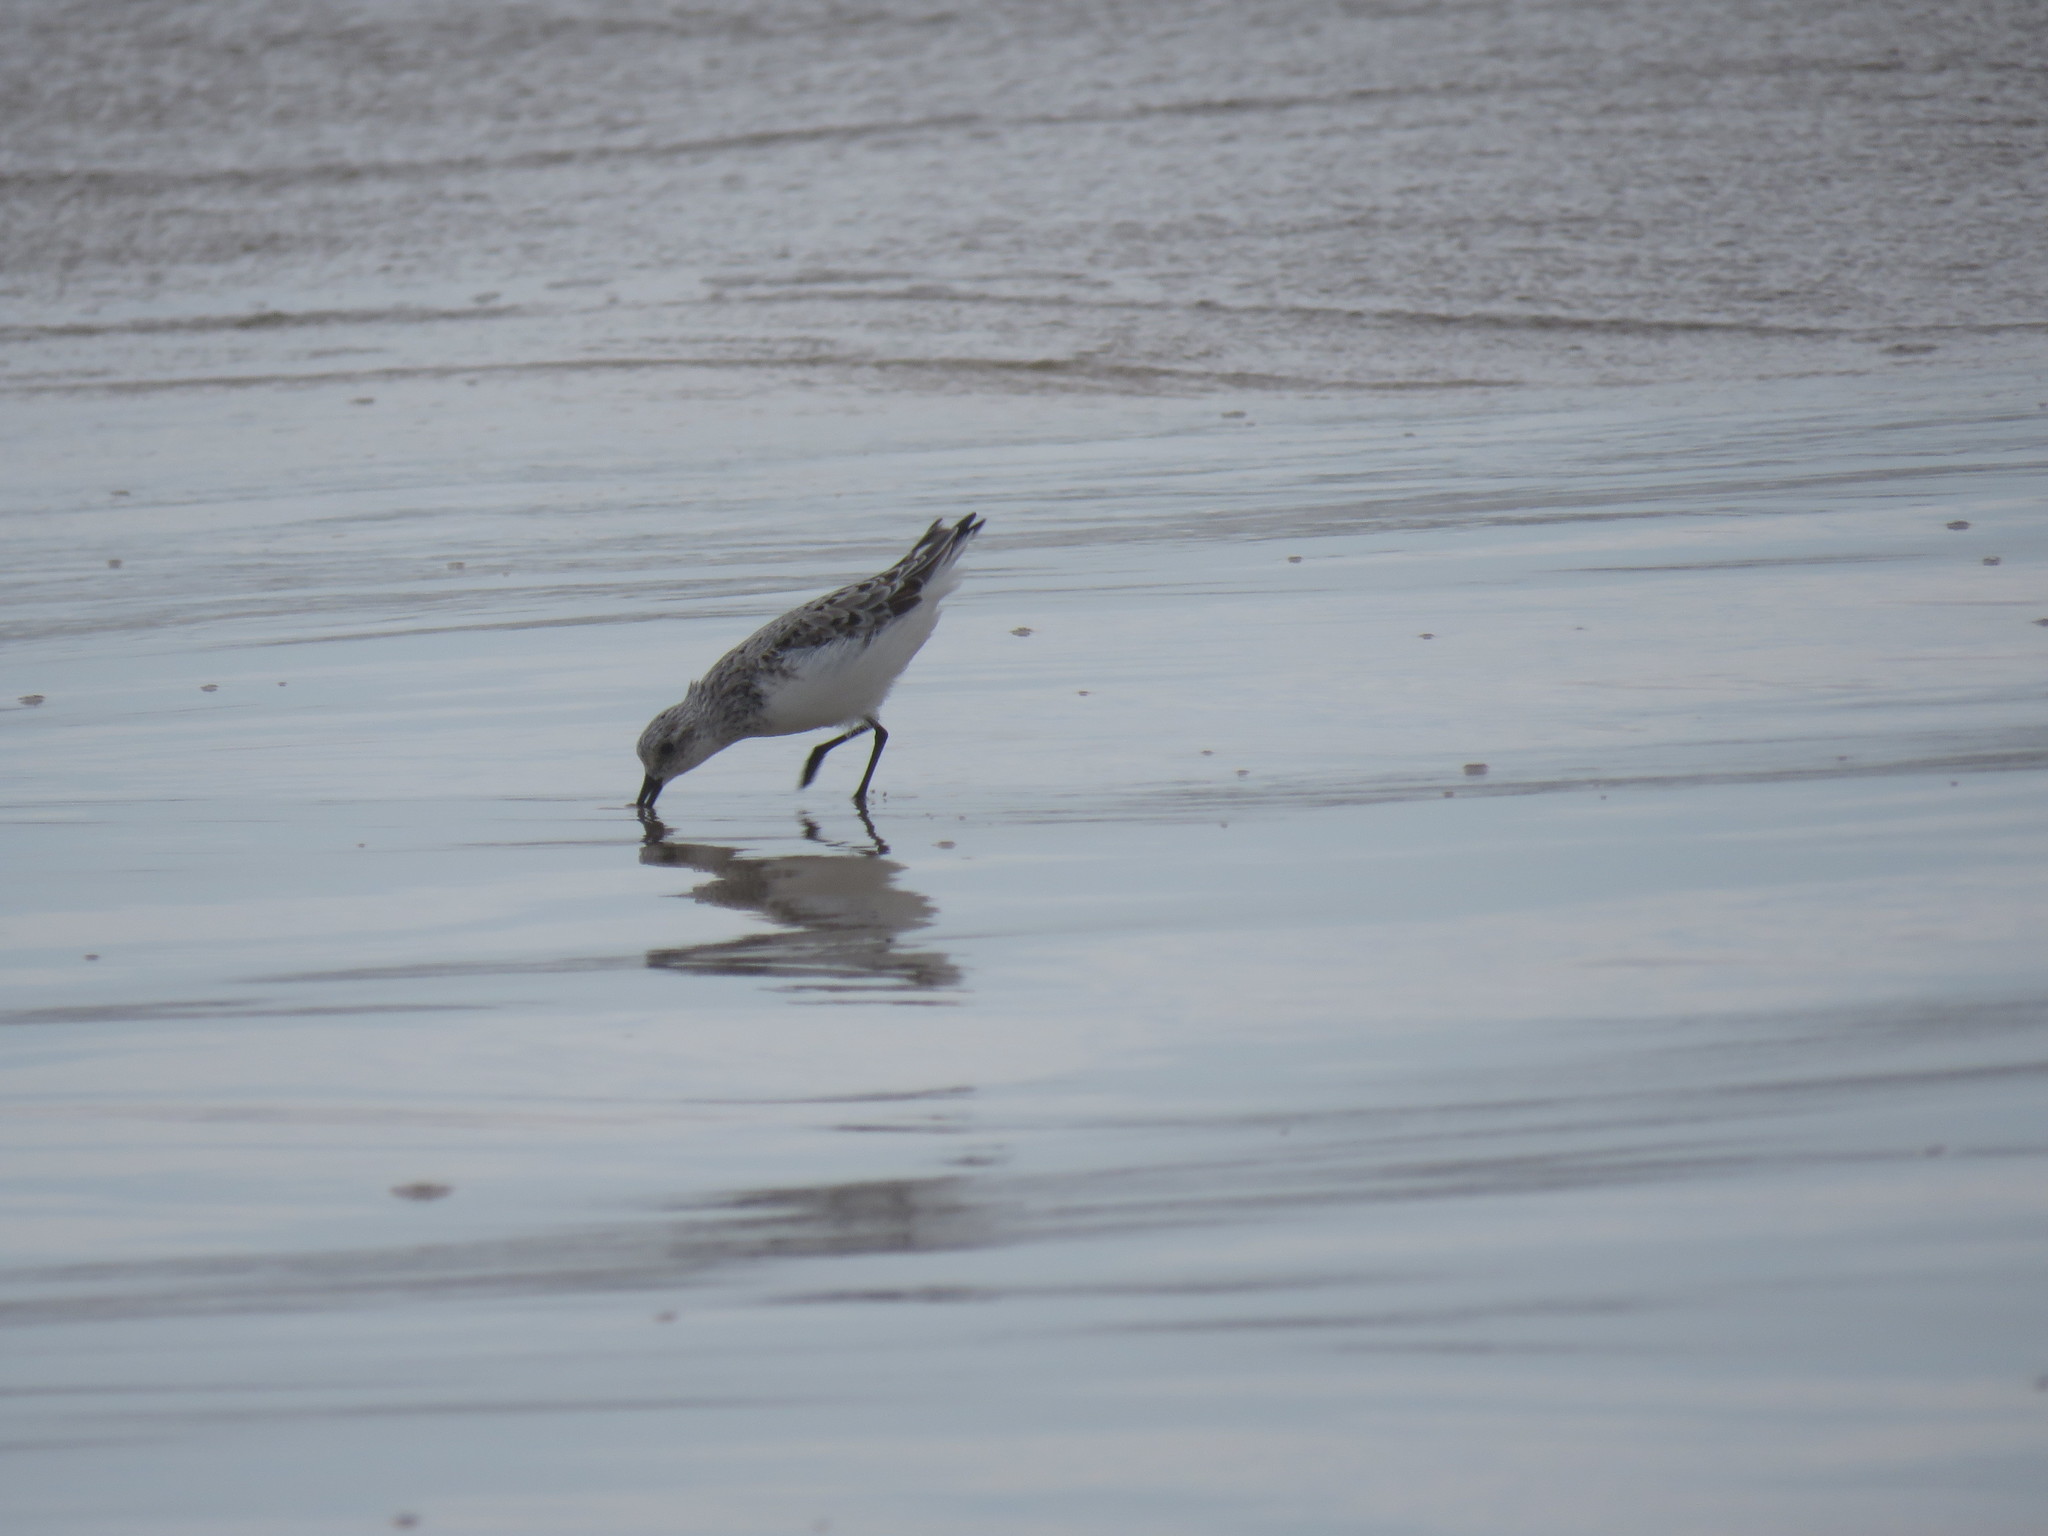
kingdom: Animalia
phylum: Chordata
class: Aves
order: Charadriiformes
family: Scolopacidae
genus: Calidris
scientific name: Calidris alba
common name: Sanderling
